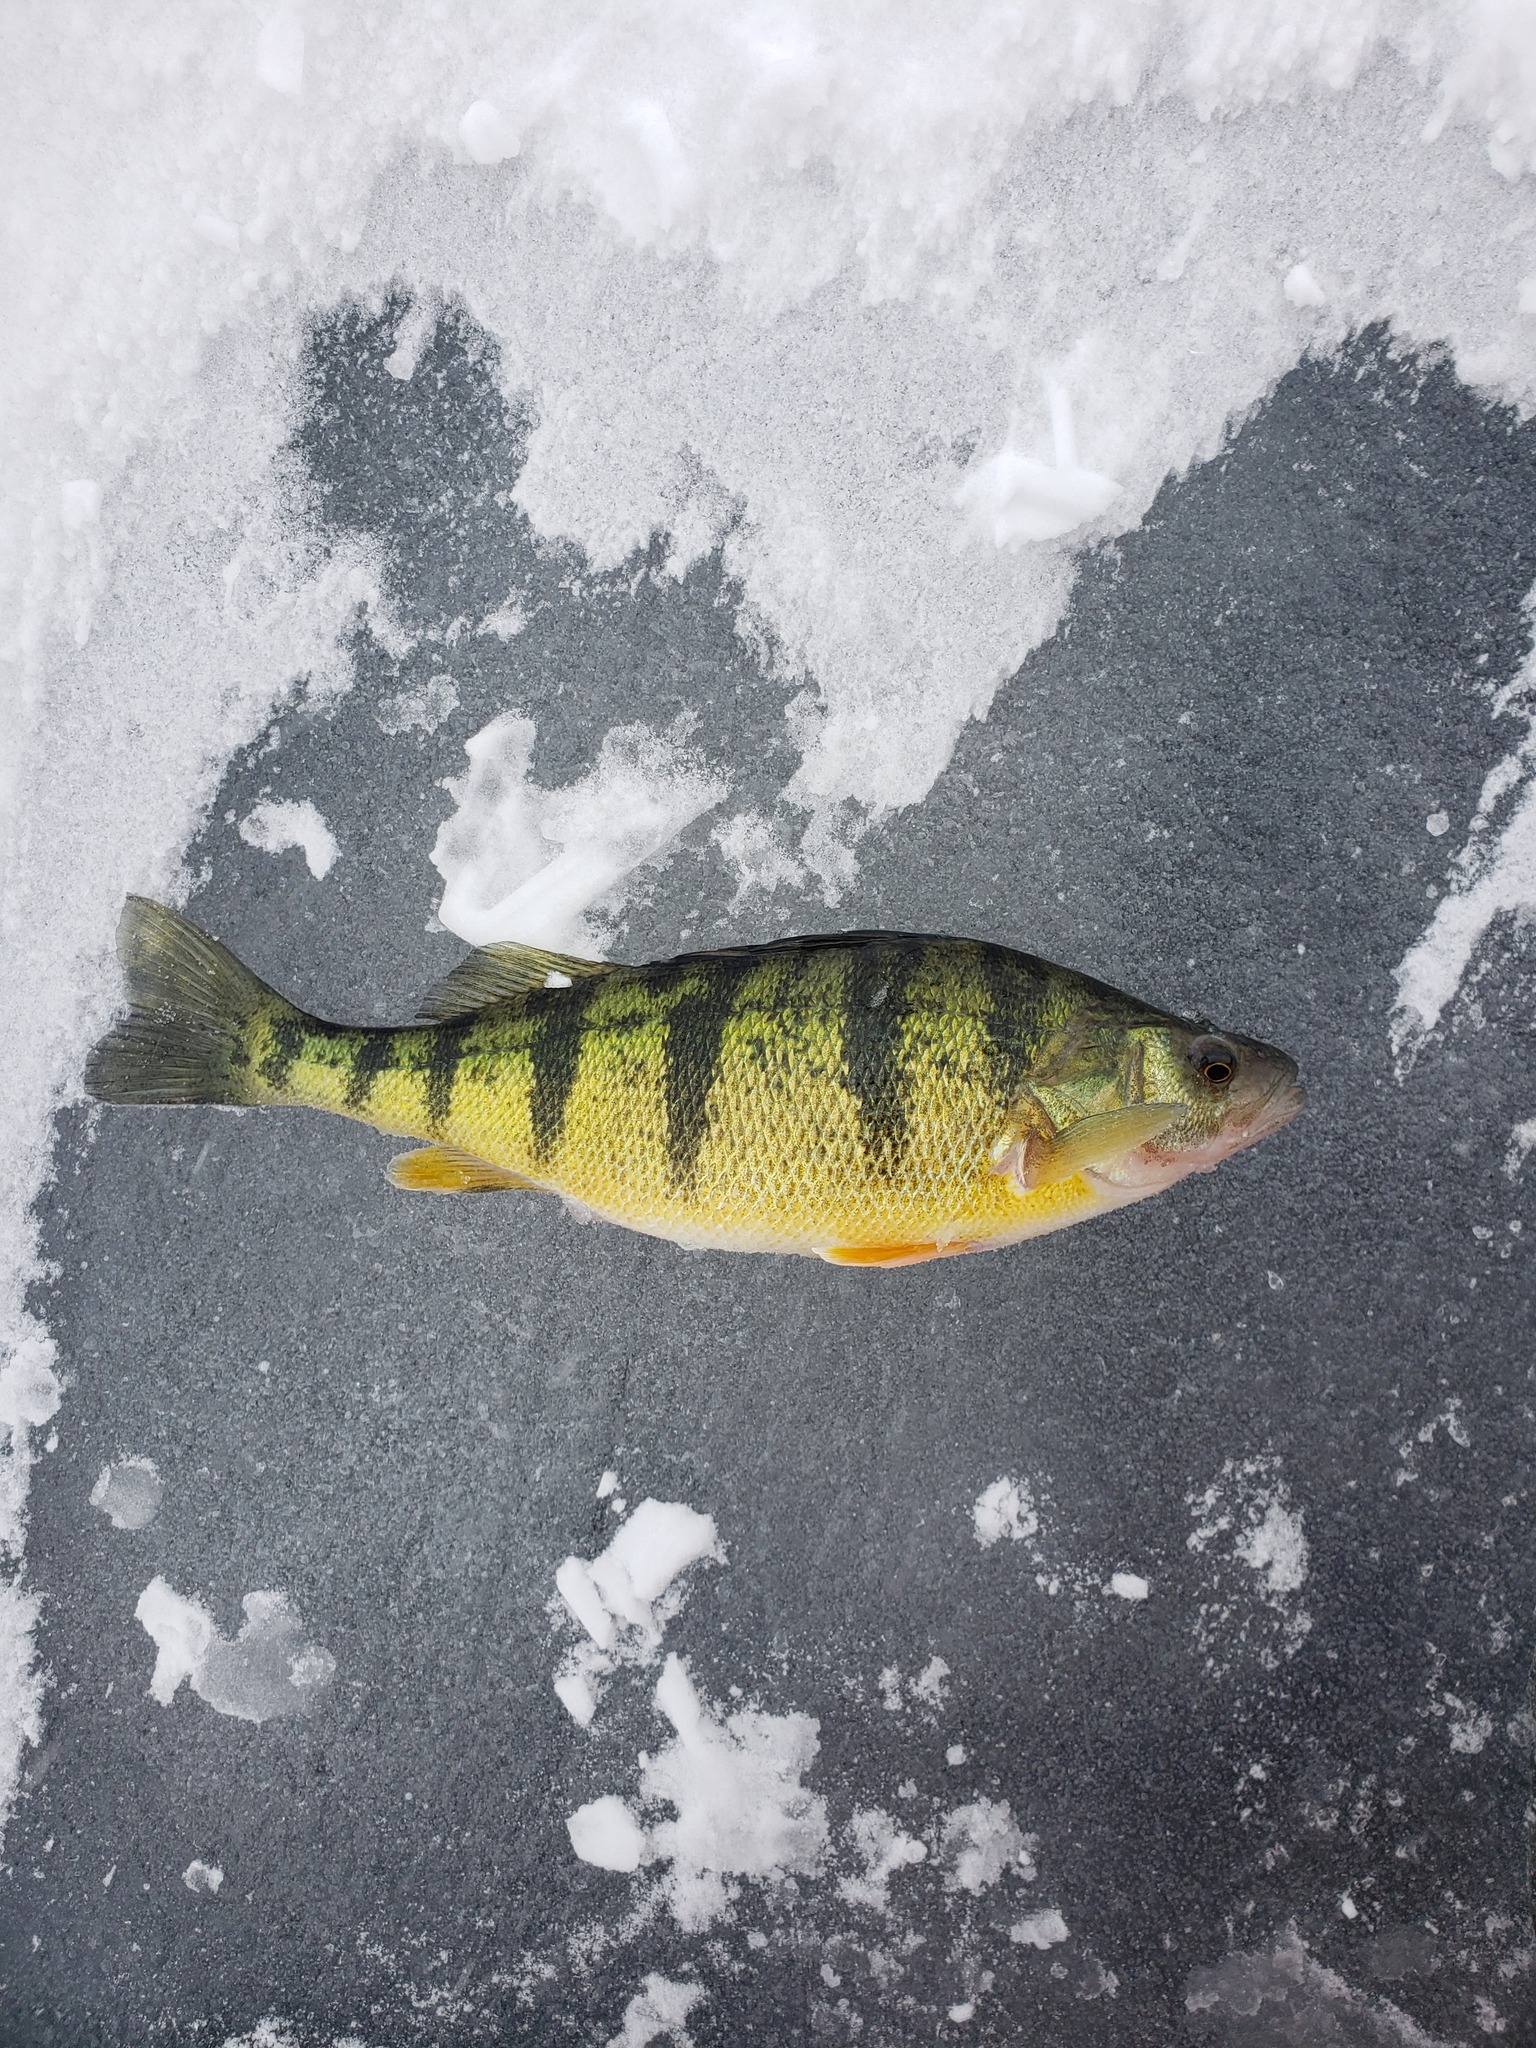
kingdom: Animalia
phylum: Chordata
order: Perciformes
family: Percidae
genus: Perca
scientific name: Perca flavescens
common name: Yellow perch
